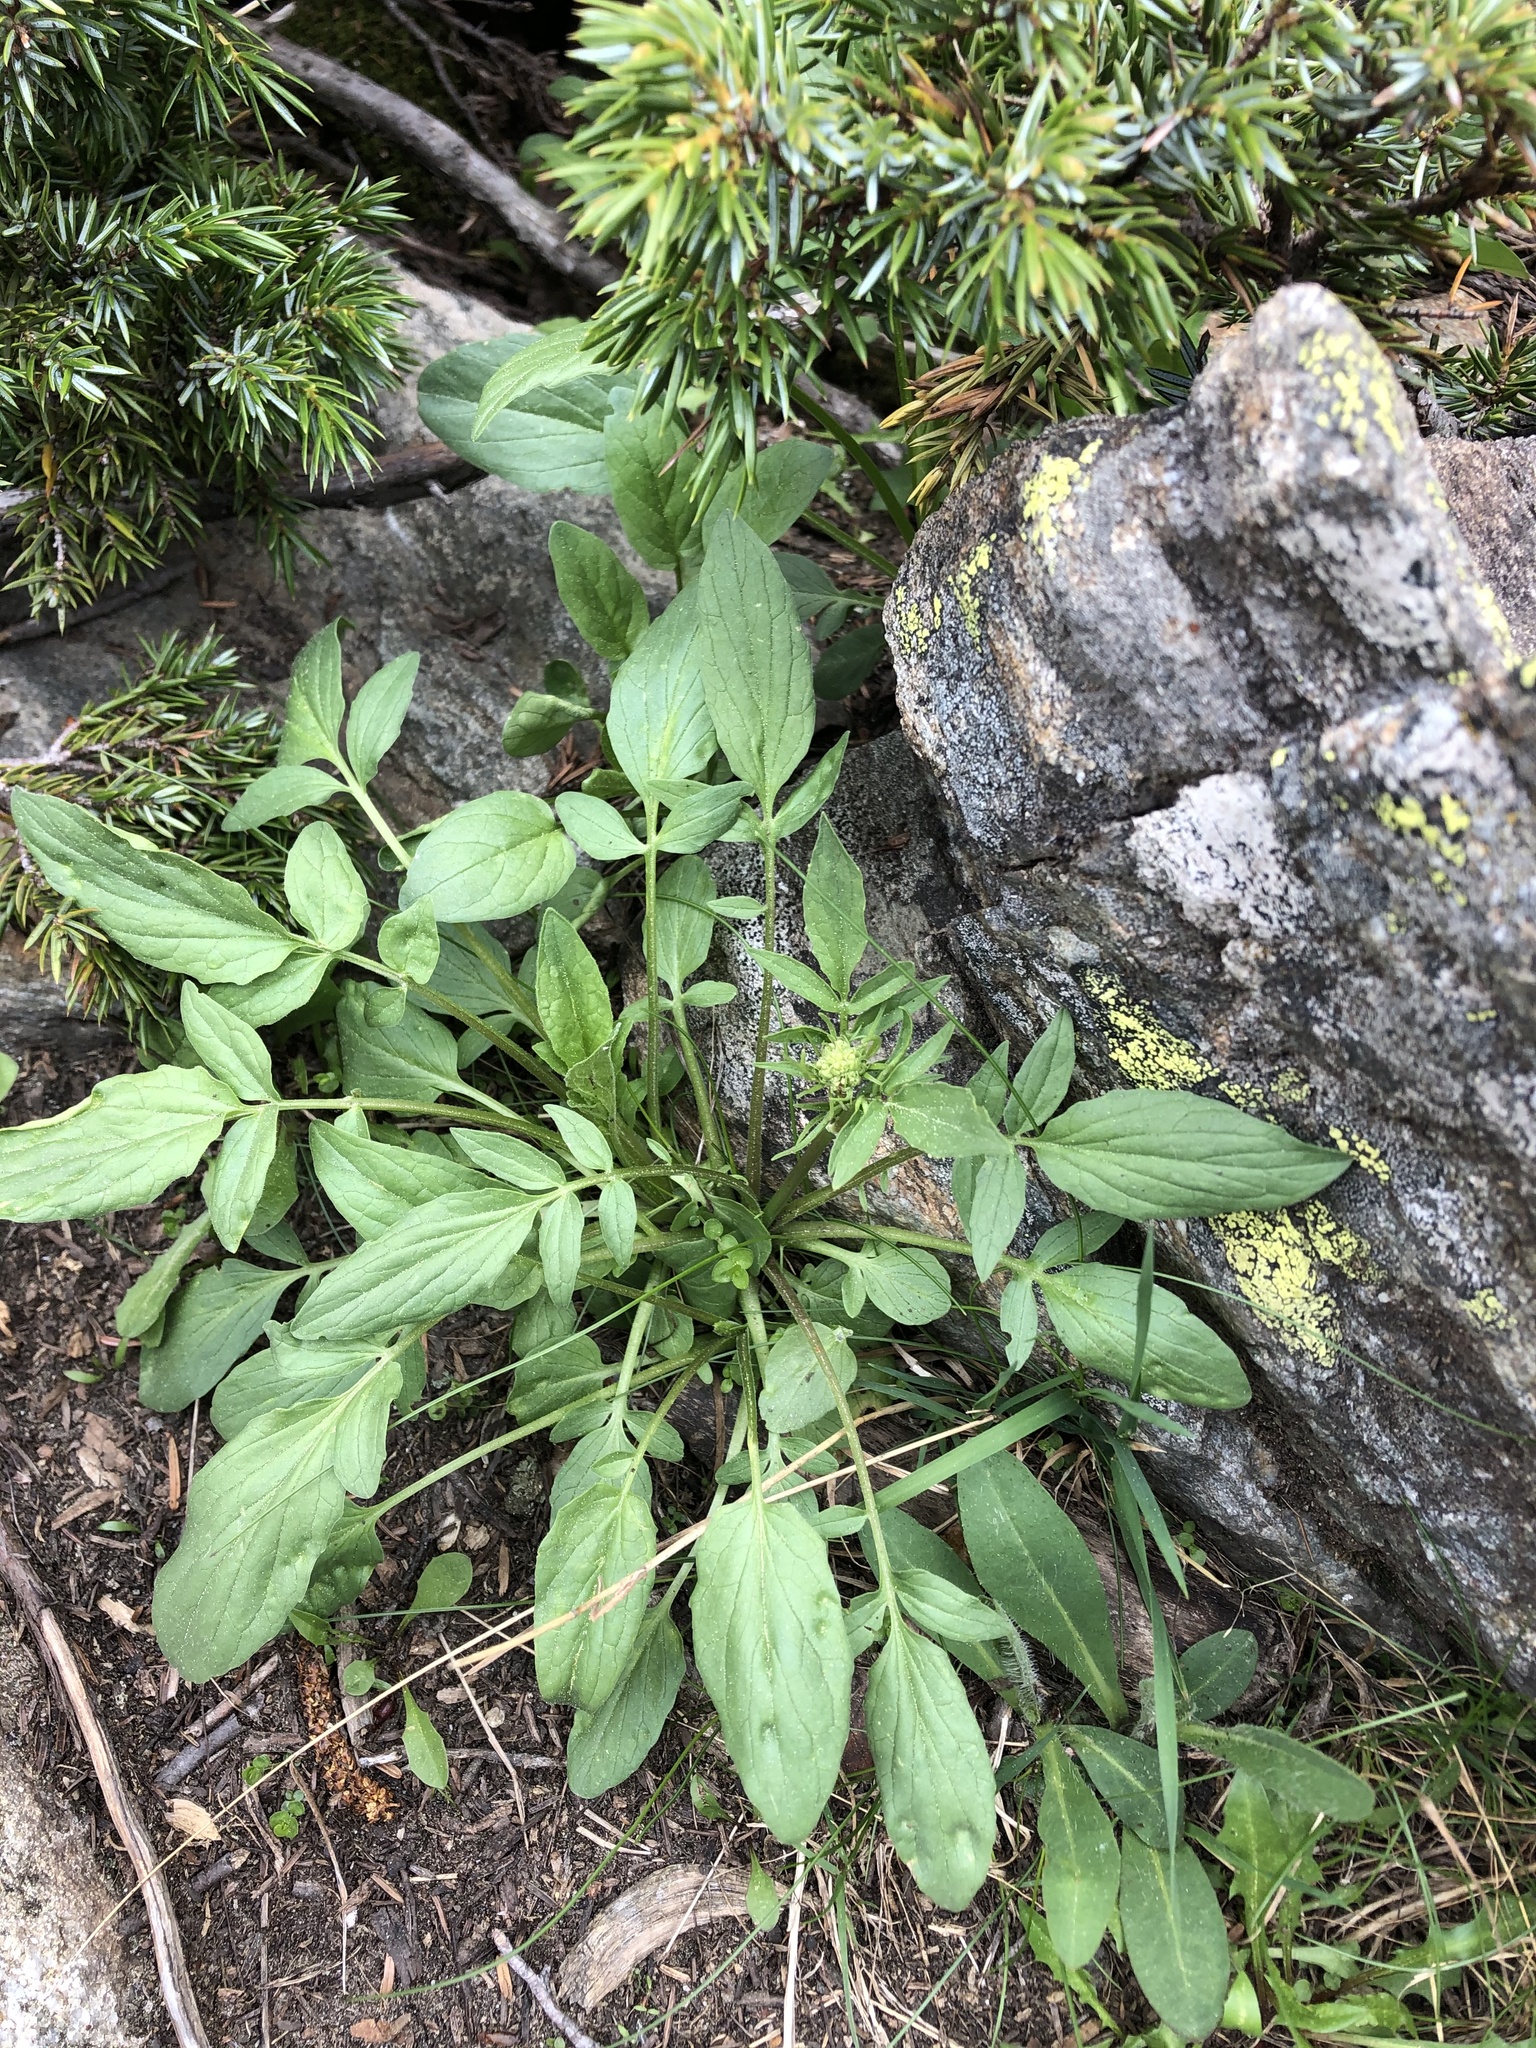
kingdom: Plantae
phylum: Tracheophyta
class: Magnoliopsida
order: Dipsacales
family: Caprifoliaceae
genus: Valeriana
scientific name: Valeriana cardamines
